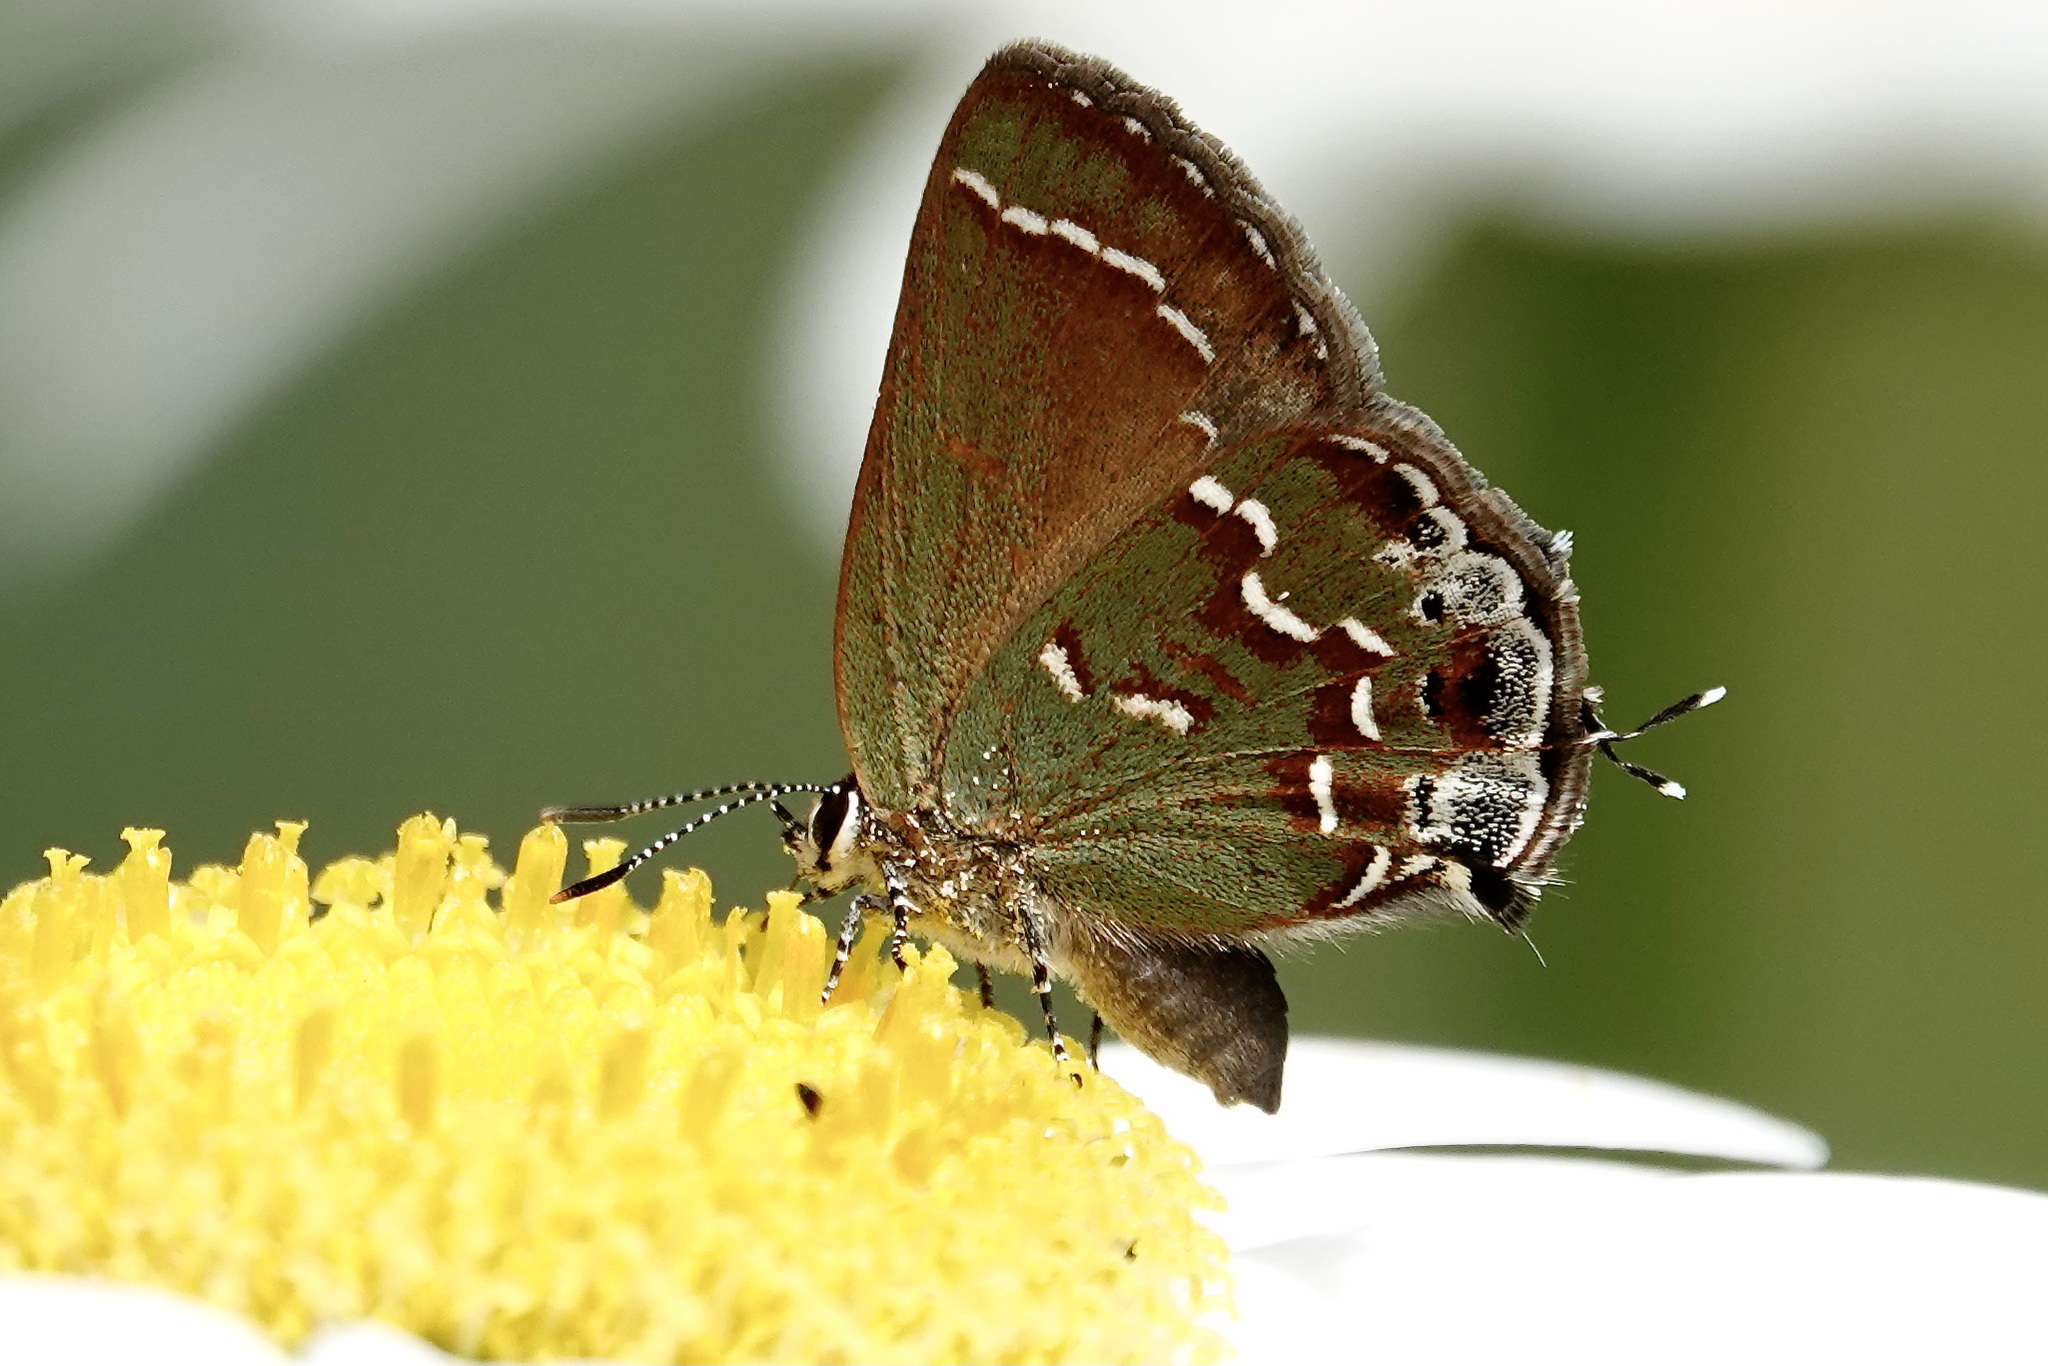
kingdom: Animalia
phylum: Arthropoda
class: Insecta
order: Lepidoptera
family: Lycaenidae
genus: Mitoura
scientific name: Mitoura gryneus
